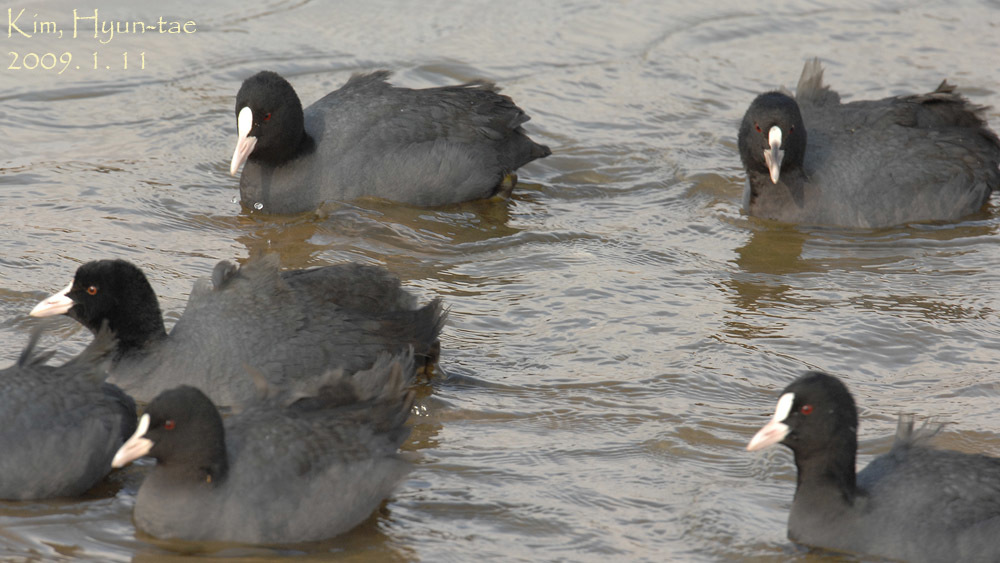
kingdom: Animalia
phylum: Chordata
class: Aves
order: Gruiformes
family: Rallidae
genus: Fulica
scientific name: Fulica atra
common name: Eurasian coot
